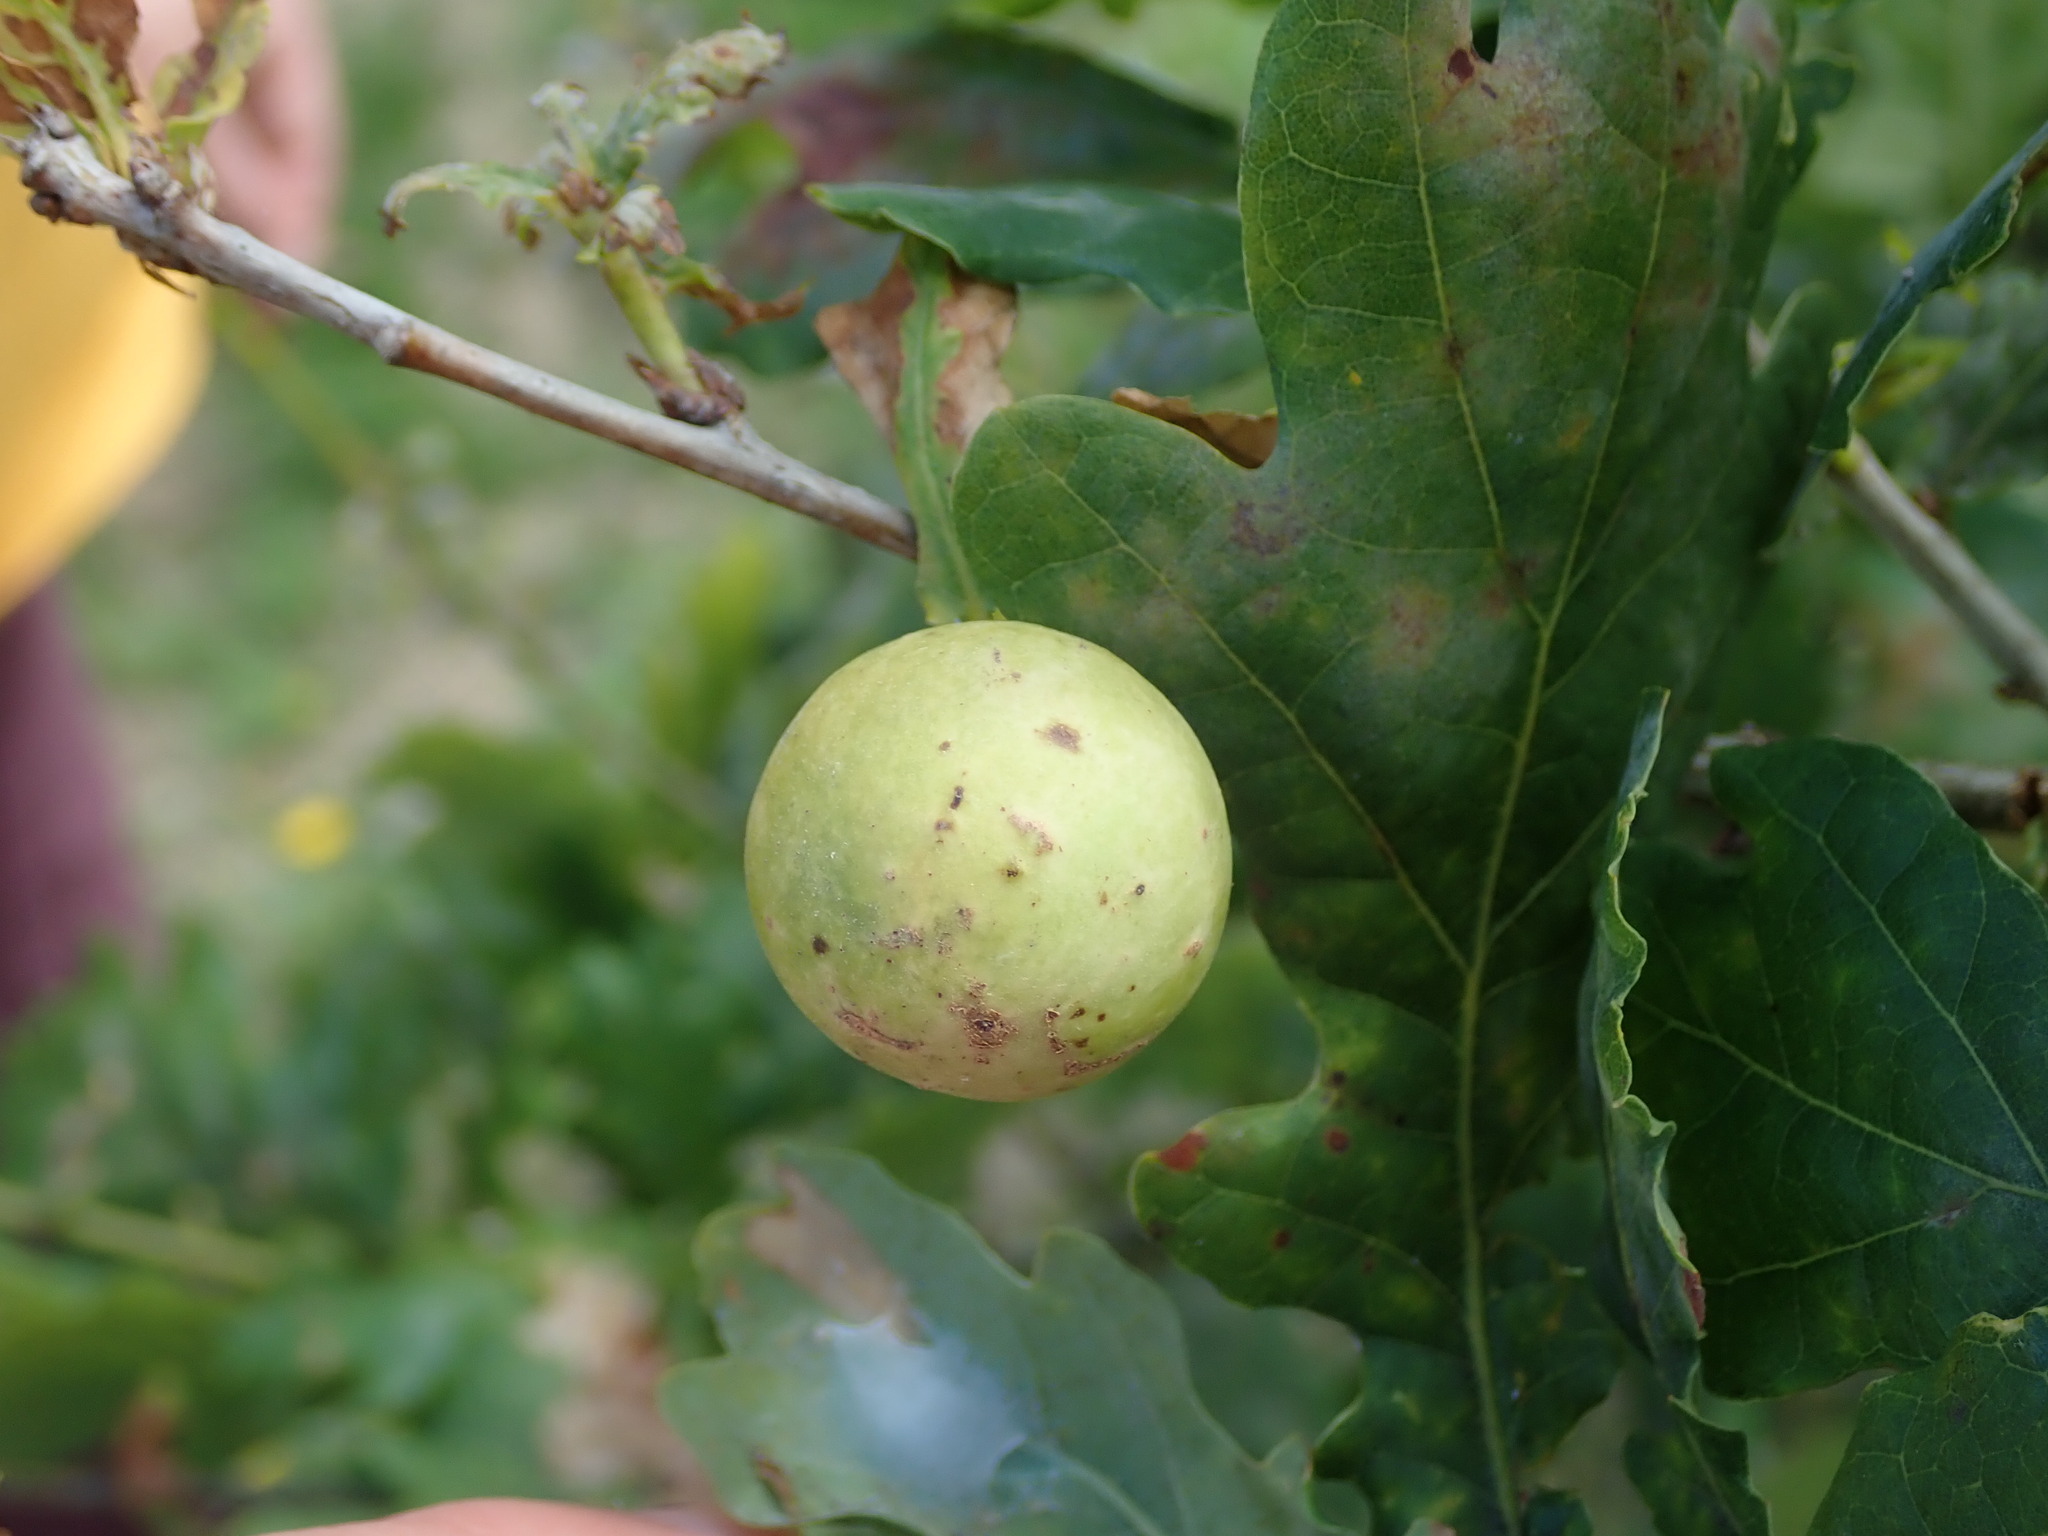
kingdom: Animalia
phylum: Arthropoda
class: Insecta
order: Hymenoptera
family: Cynipidae
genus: Andricus
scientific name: Andricus kollari
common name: Marble gall
